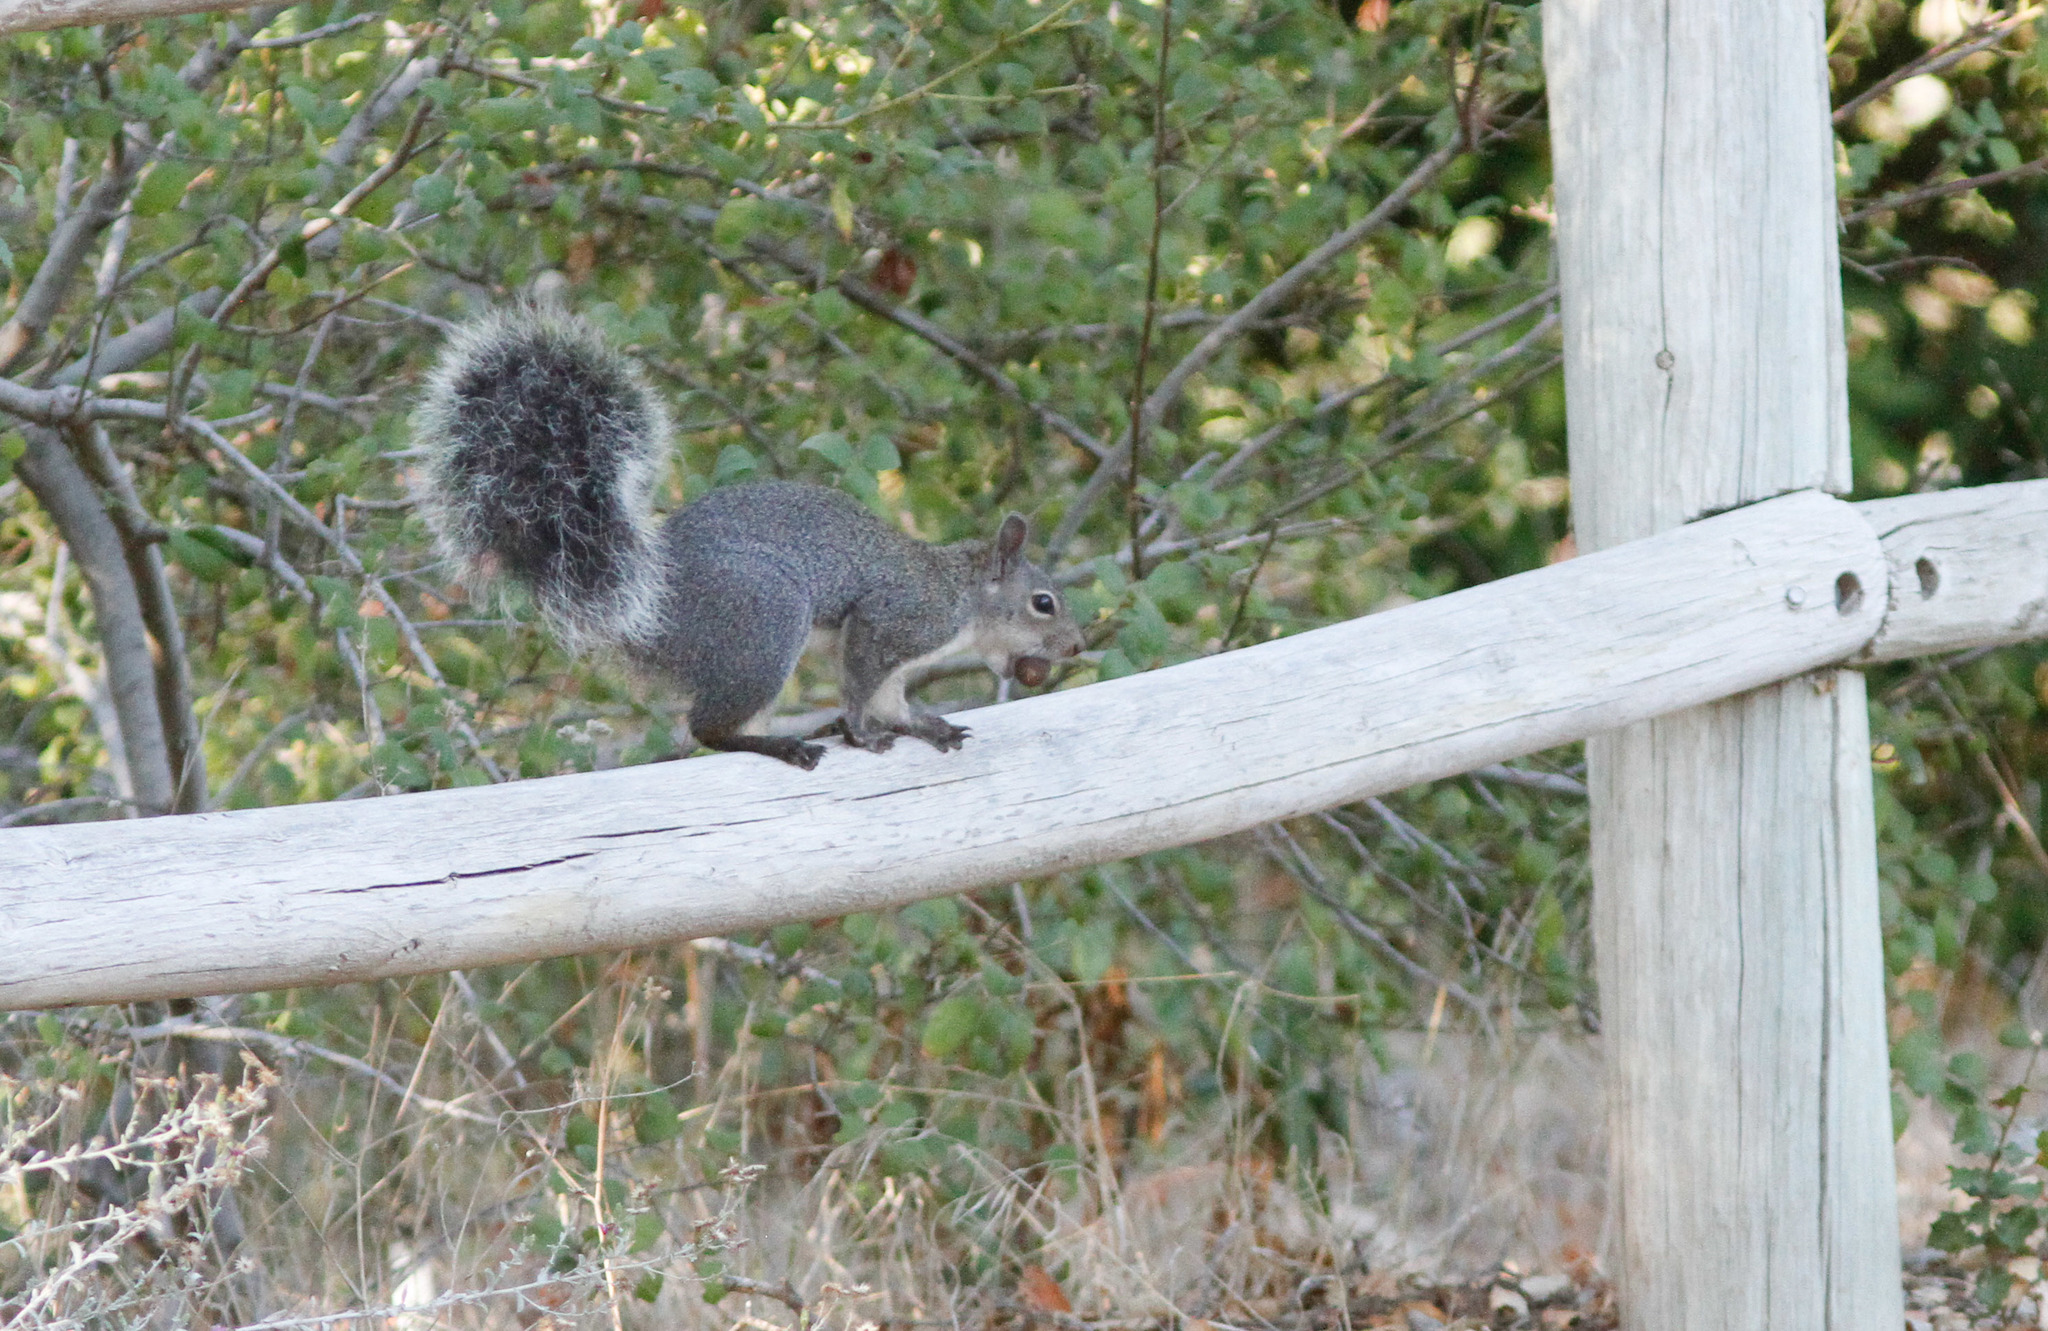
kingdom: Animalia
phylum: Chordata
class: Mammalia
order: Rodentia
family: Sciuridae
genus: Sciurus
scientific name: Sciurus griseus
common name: Western gray squirrel
